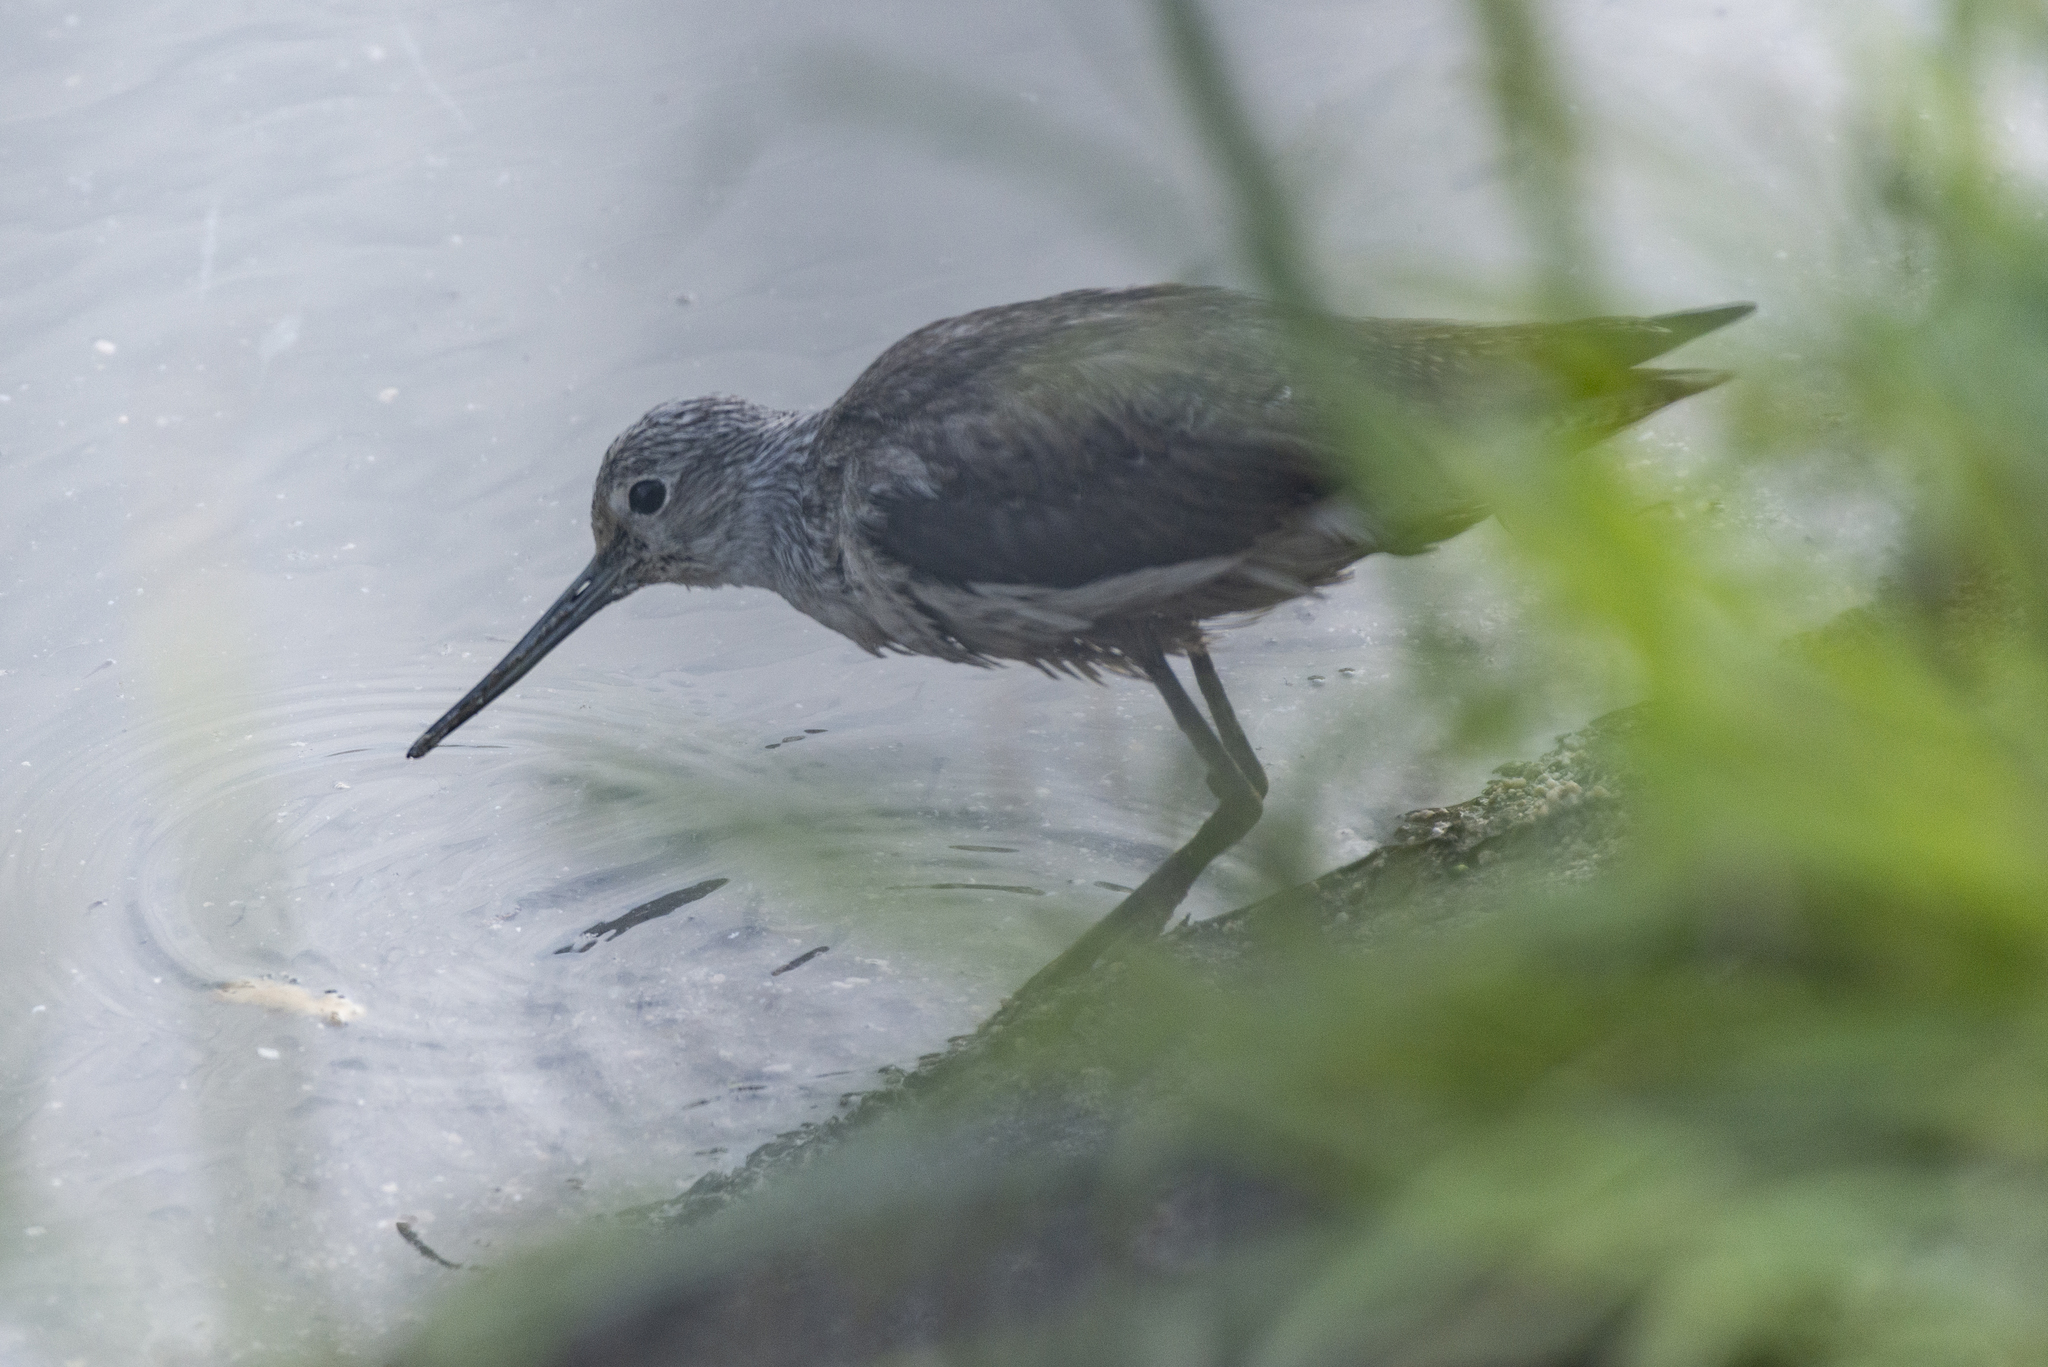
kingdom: Animalia
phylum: Chordata
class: Aves
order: Charadriiformes
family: Scolopacidae
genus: Tringa
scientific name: Tringa nebularia
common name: Common greenshank
